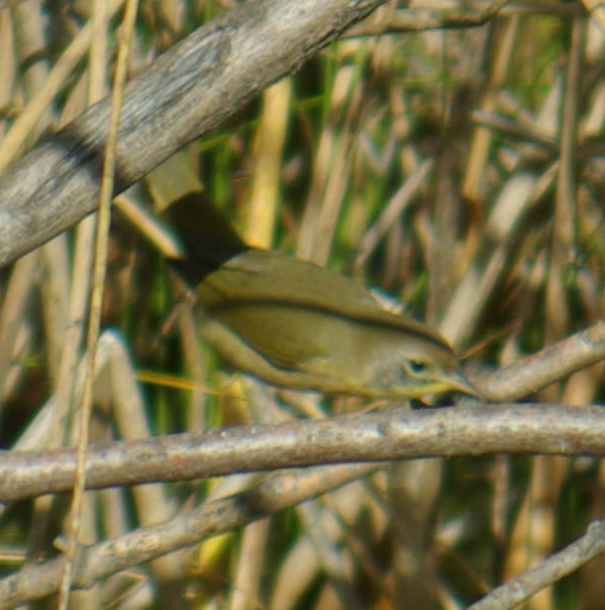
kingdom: Animalia
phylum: Chordata
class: Aves
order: Passeriformes
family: Parulidae
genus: Geothlypis
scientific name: Geothlypis trichas
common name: Common yellowthroat
